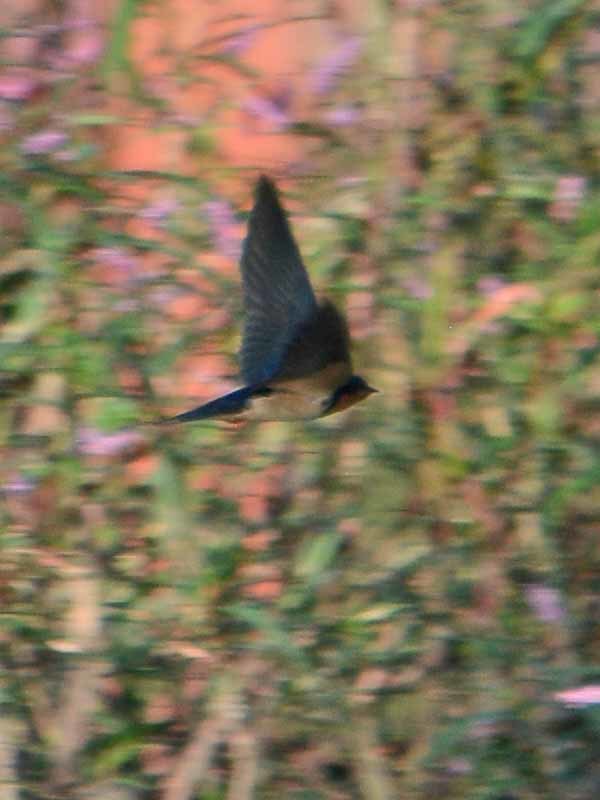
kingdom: Animalia
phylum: Chordata
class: Aves
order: Passeriformes
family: Hirundinidae
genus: Hirundo
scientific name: Hirundo rustica
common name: Barn swallow
